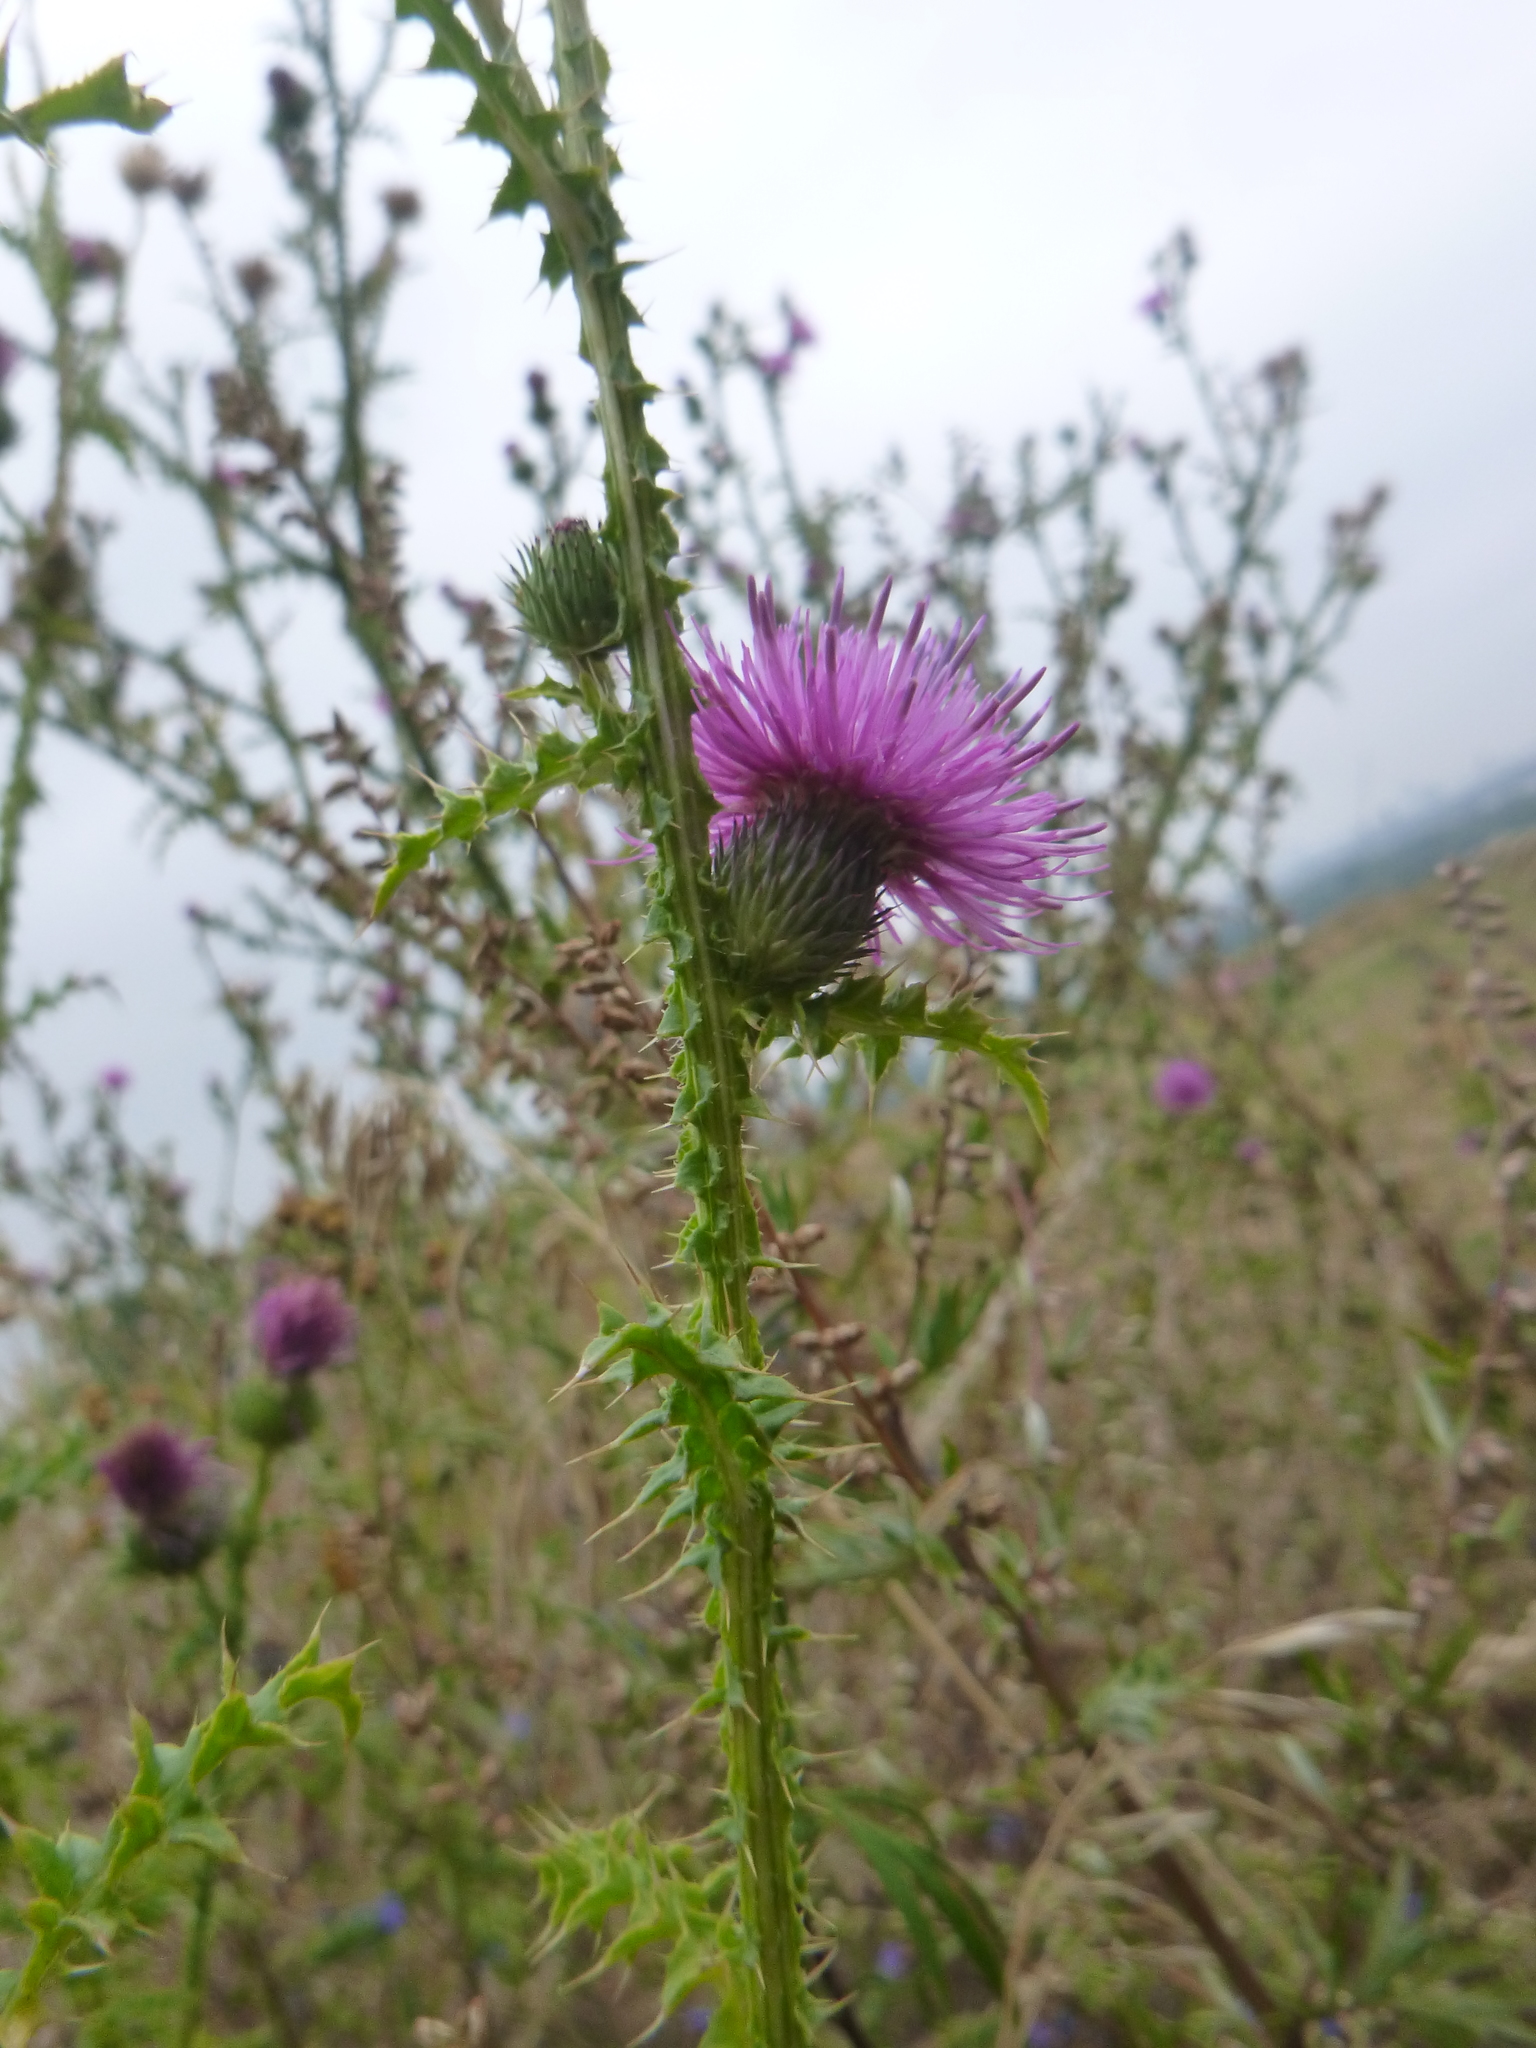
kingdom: Plantae
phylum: Tracheophyta
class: Magnoliopsida
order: Asterales
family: Asteraceae
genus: Cirsium
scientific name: Cirsium vulgare
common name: Bull thistle
